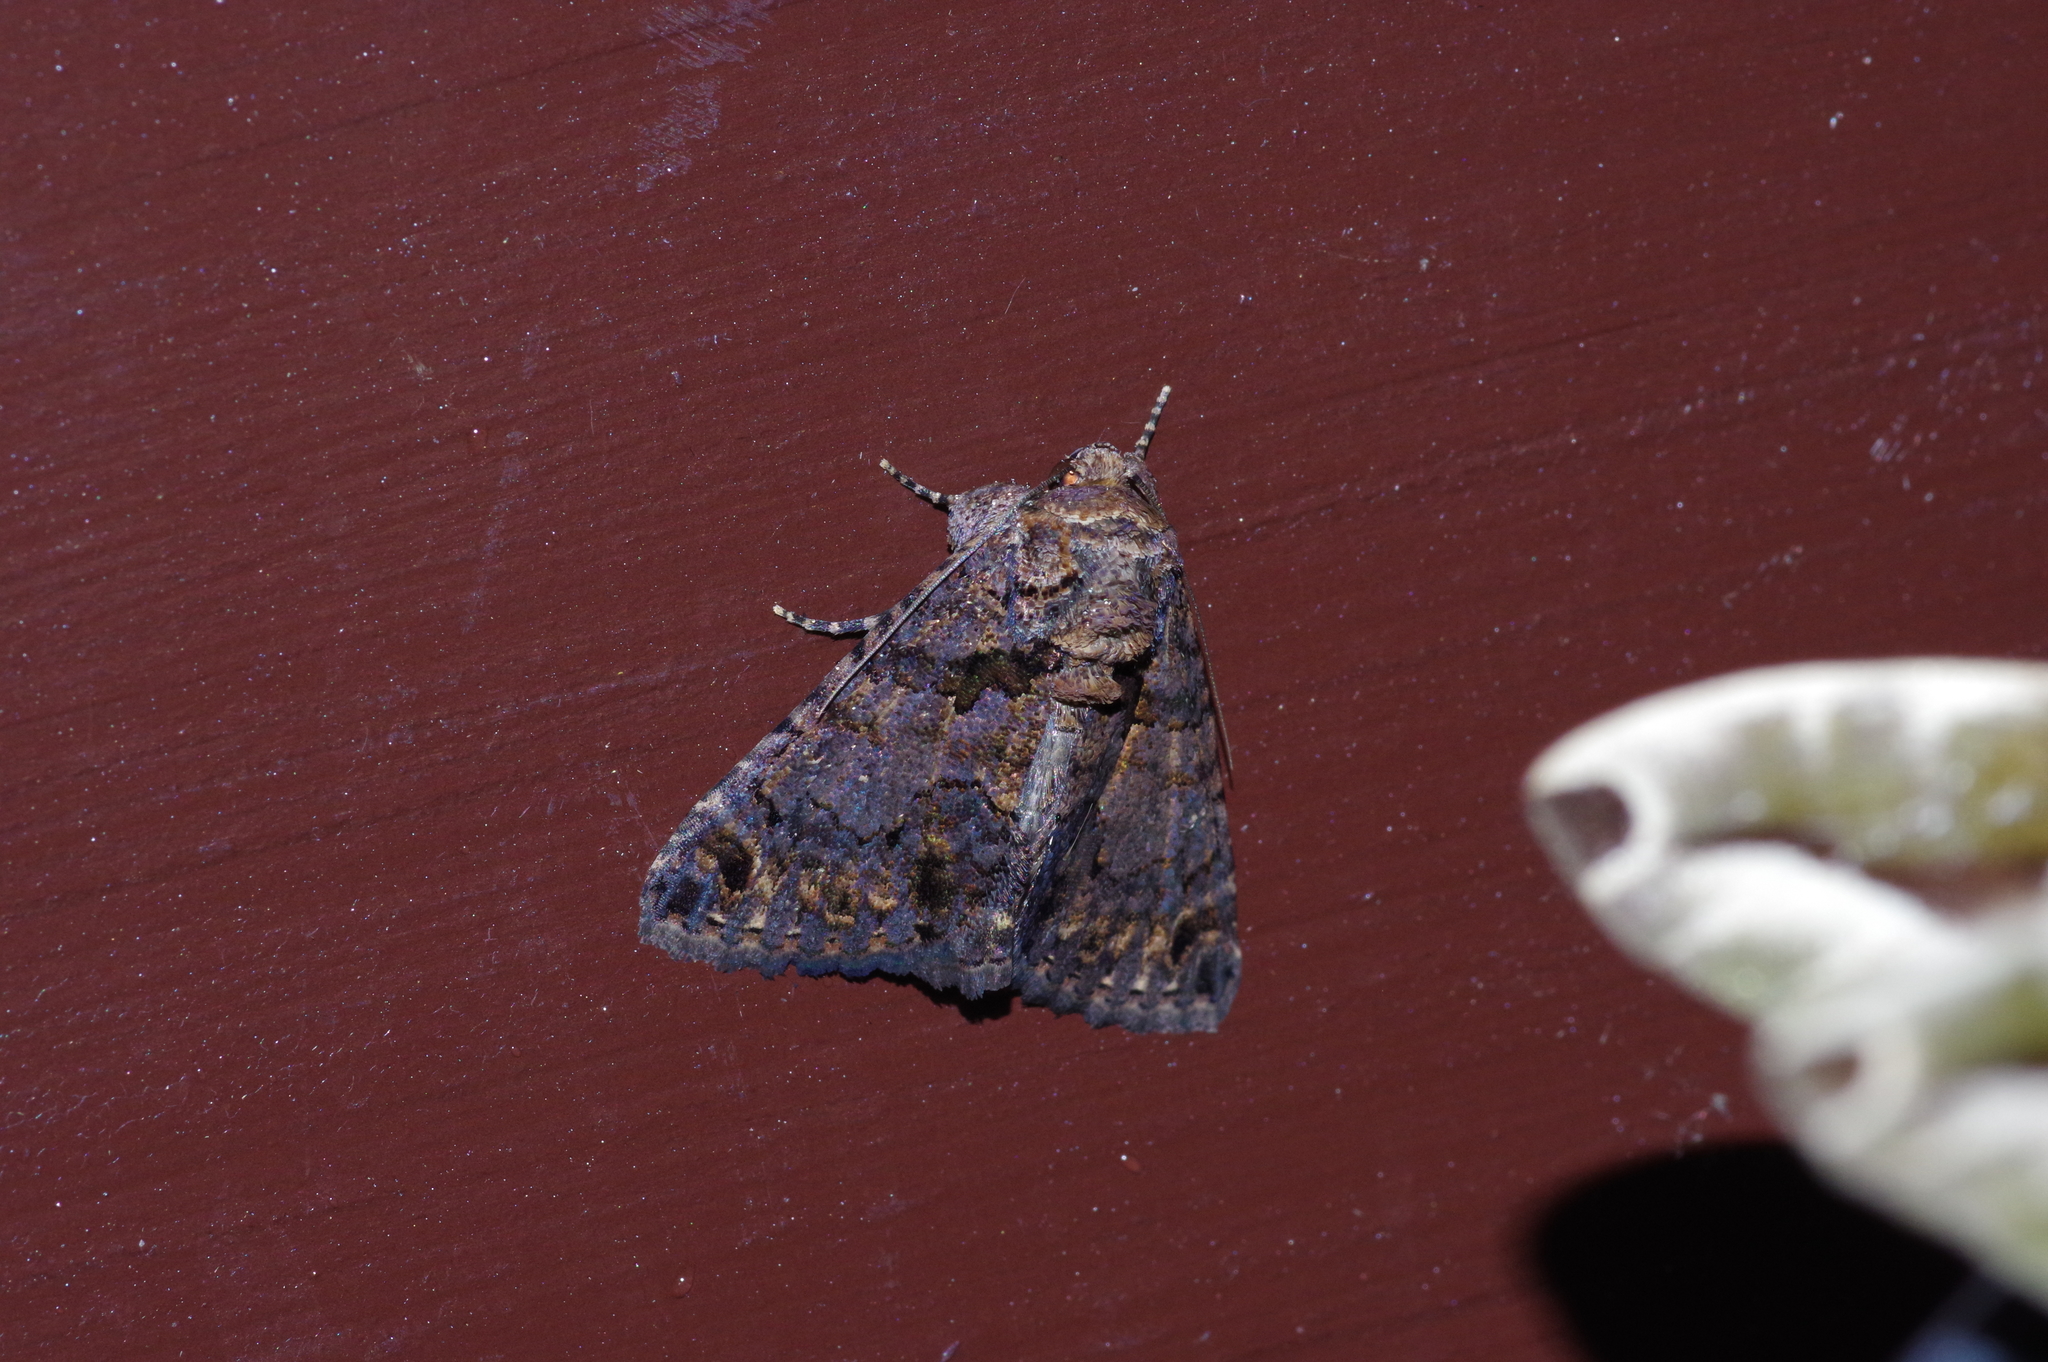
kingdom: Animalia
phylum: Arthropoda
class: Insecta
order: Lepidoptera
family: Erebidae
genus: Erygia
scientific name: Erygia apicalis
